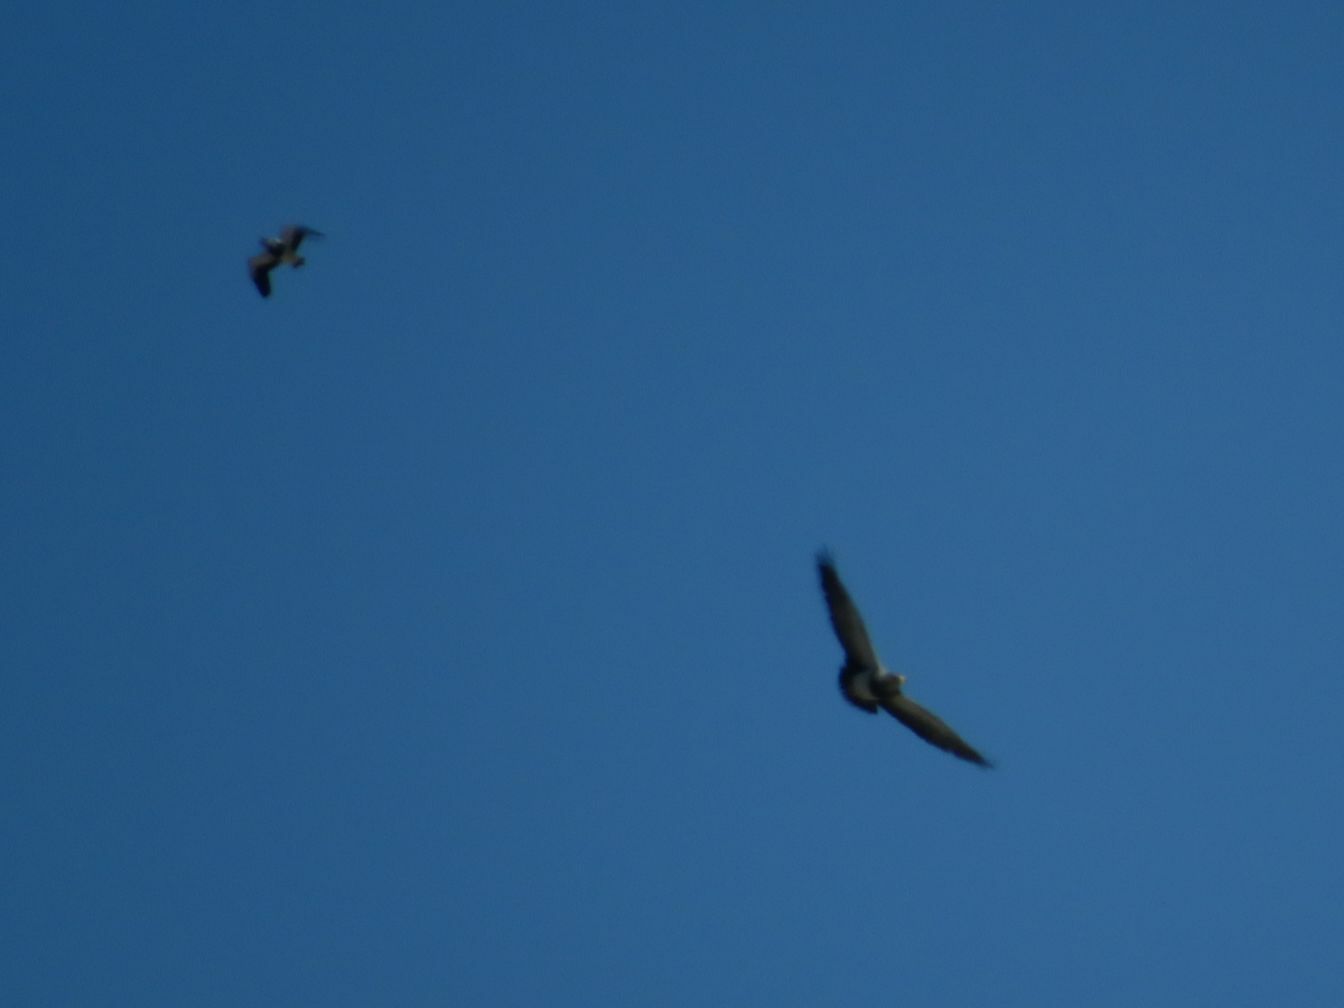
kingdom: Animalia
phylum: Chordata
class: Aves
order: Accipitriformes
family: Accipitridae
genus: Geranoaetus
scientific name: Geranoaetus melanoleucus
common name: Black-chested buzzard-eagle
